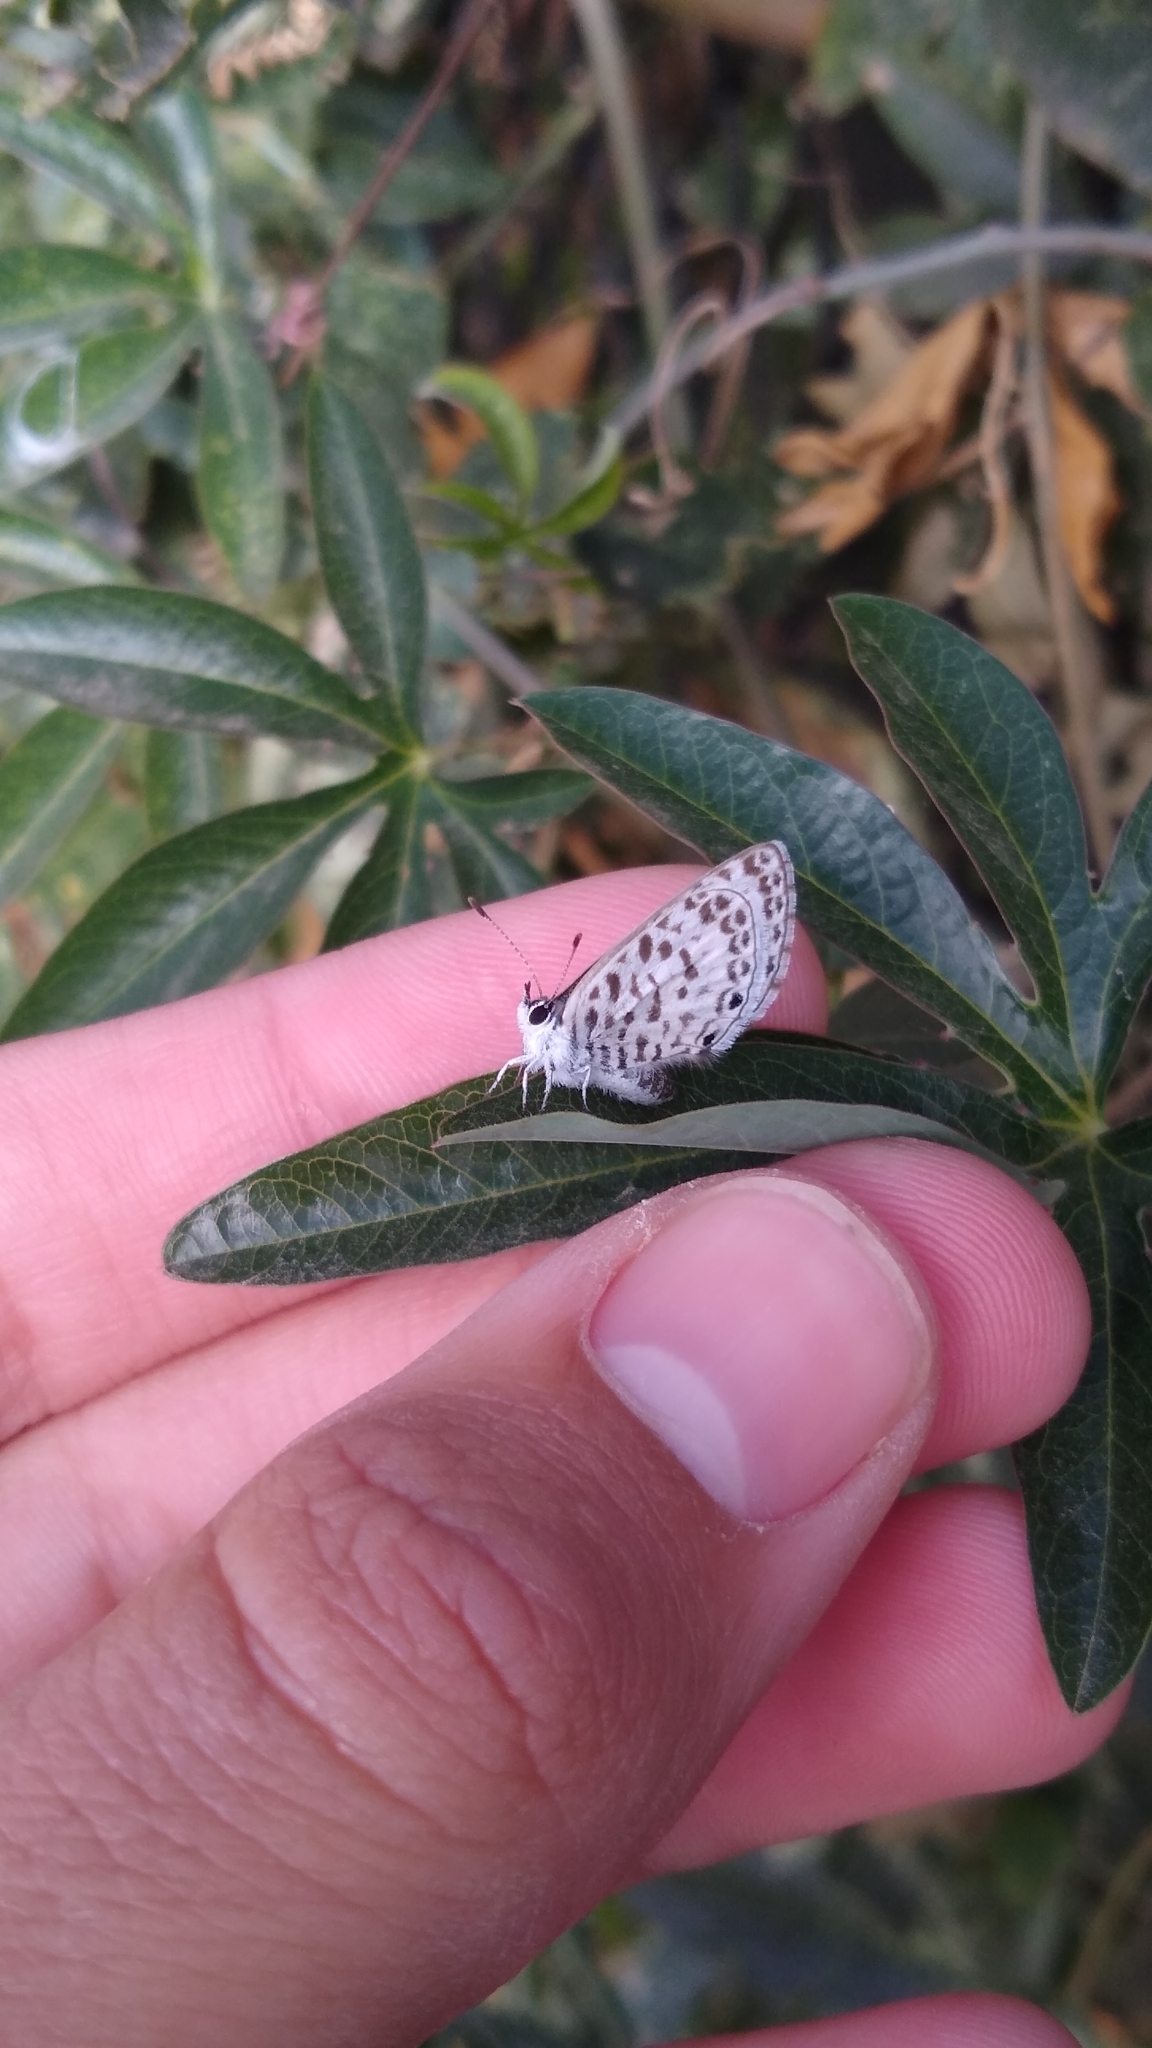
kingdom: Animalia
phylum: Arthropoda
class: Insecta
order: Lepidoptera
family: Lycaenidae
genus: Leptotes
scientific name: Leptotes cassius
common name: Cassius blue
